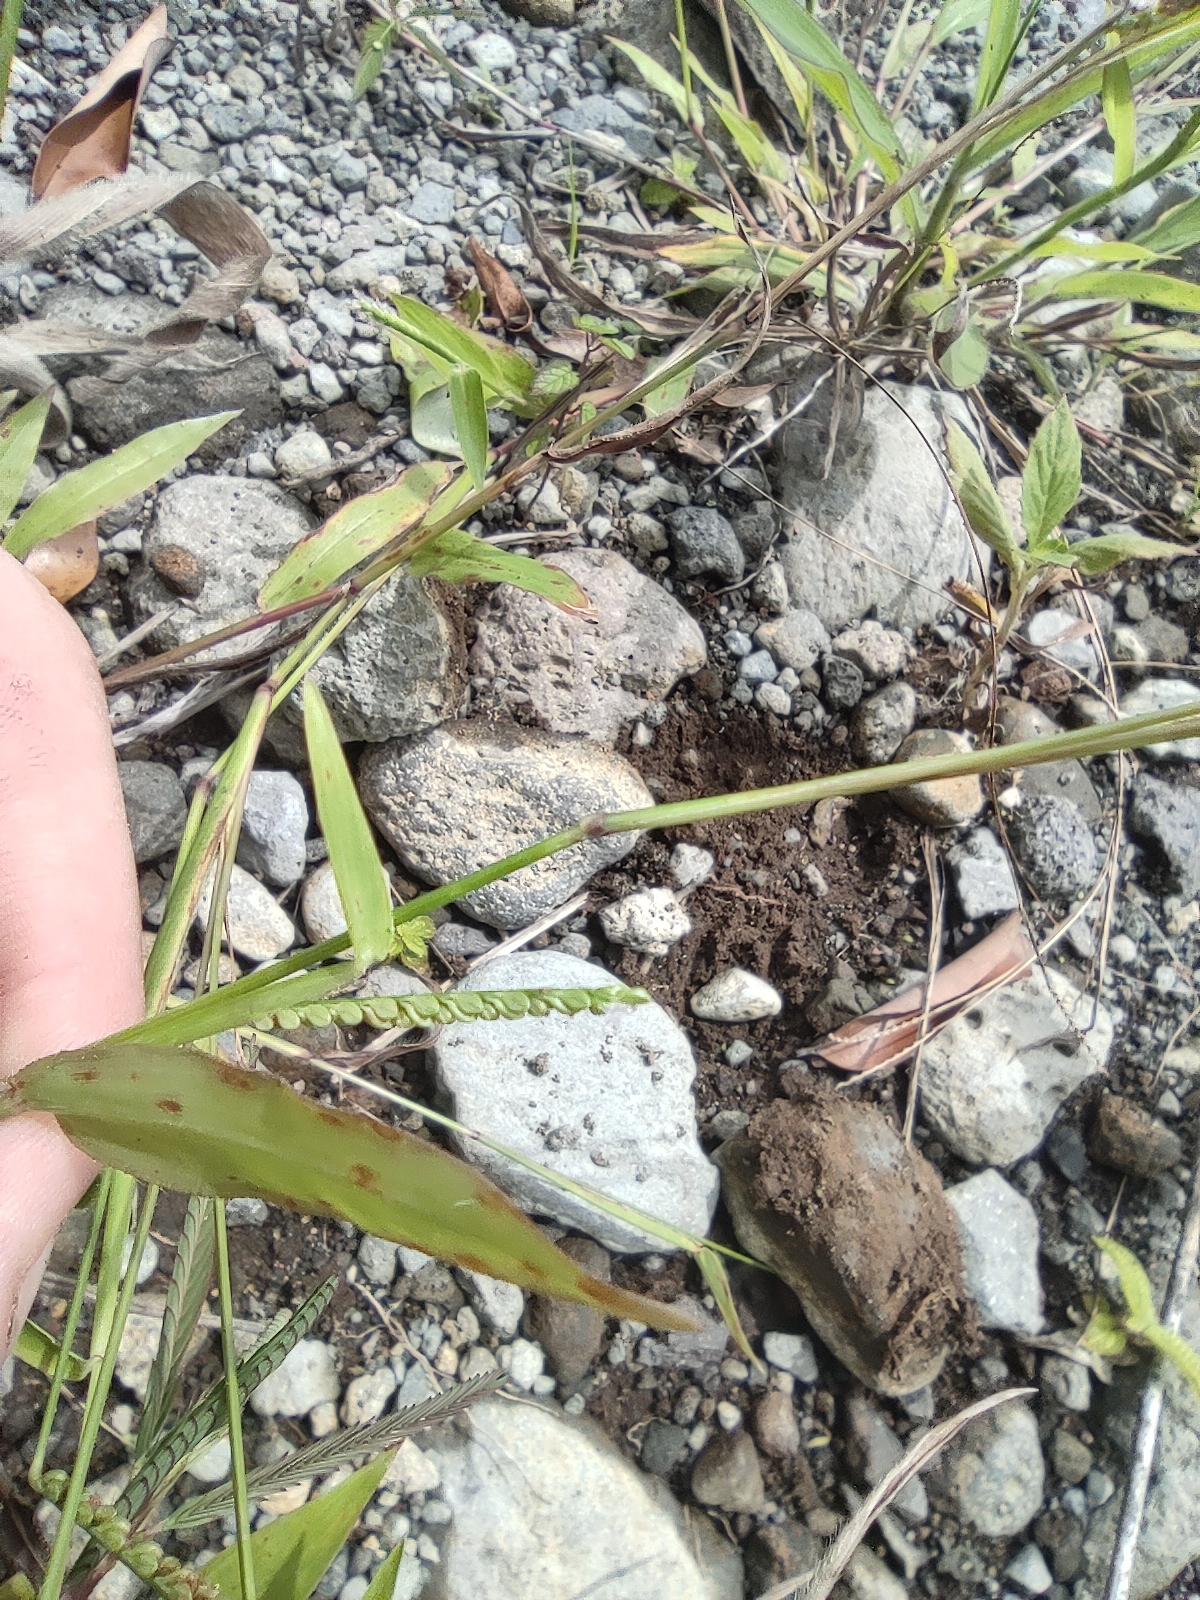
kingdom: Plantae
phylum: Tracheophyta
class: Liliopsida
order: Poales
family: Poaceae
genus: Paspalum
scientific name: Paspalum nutans
